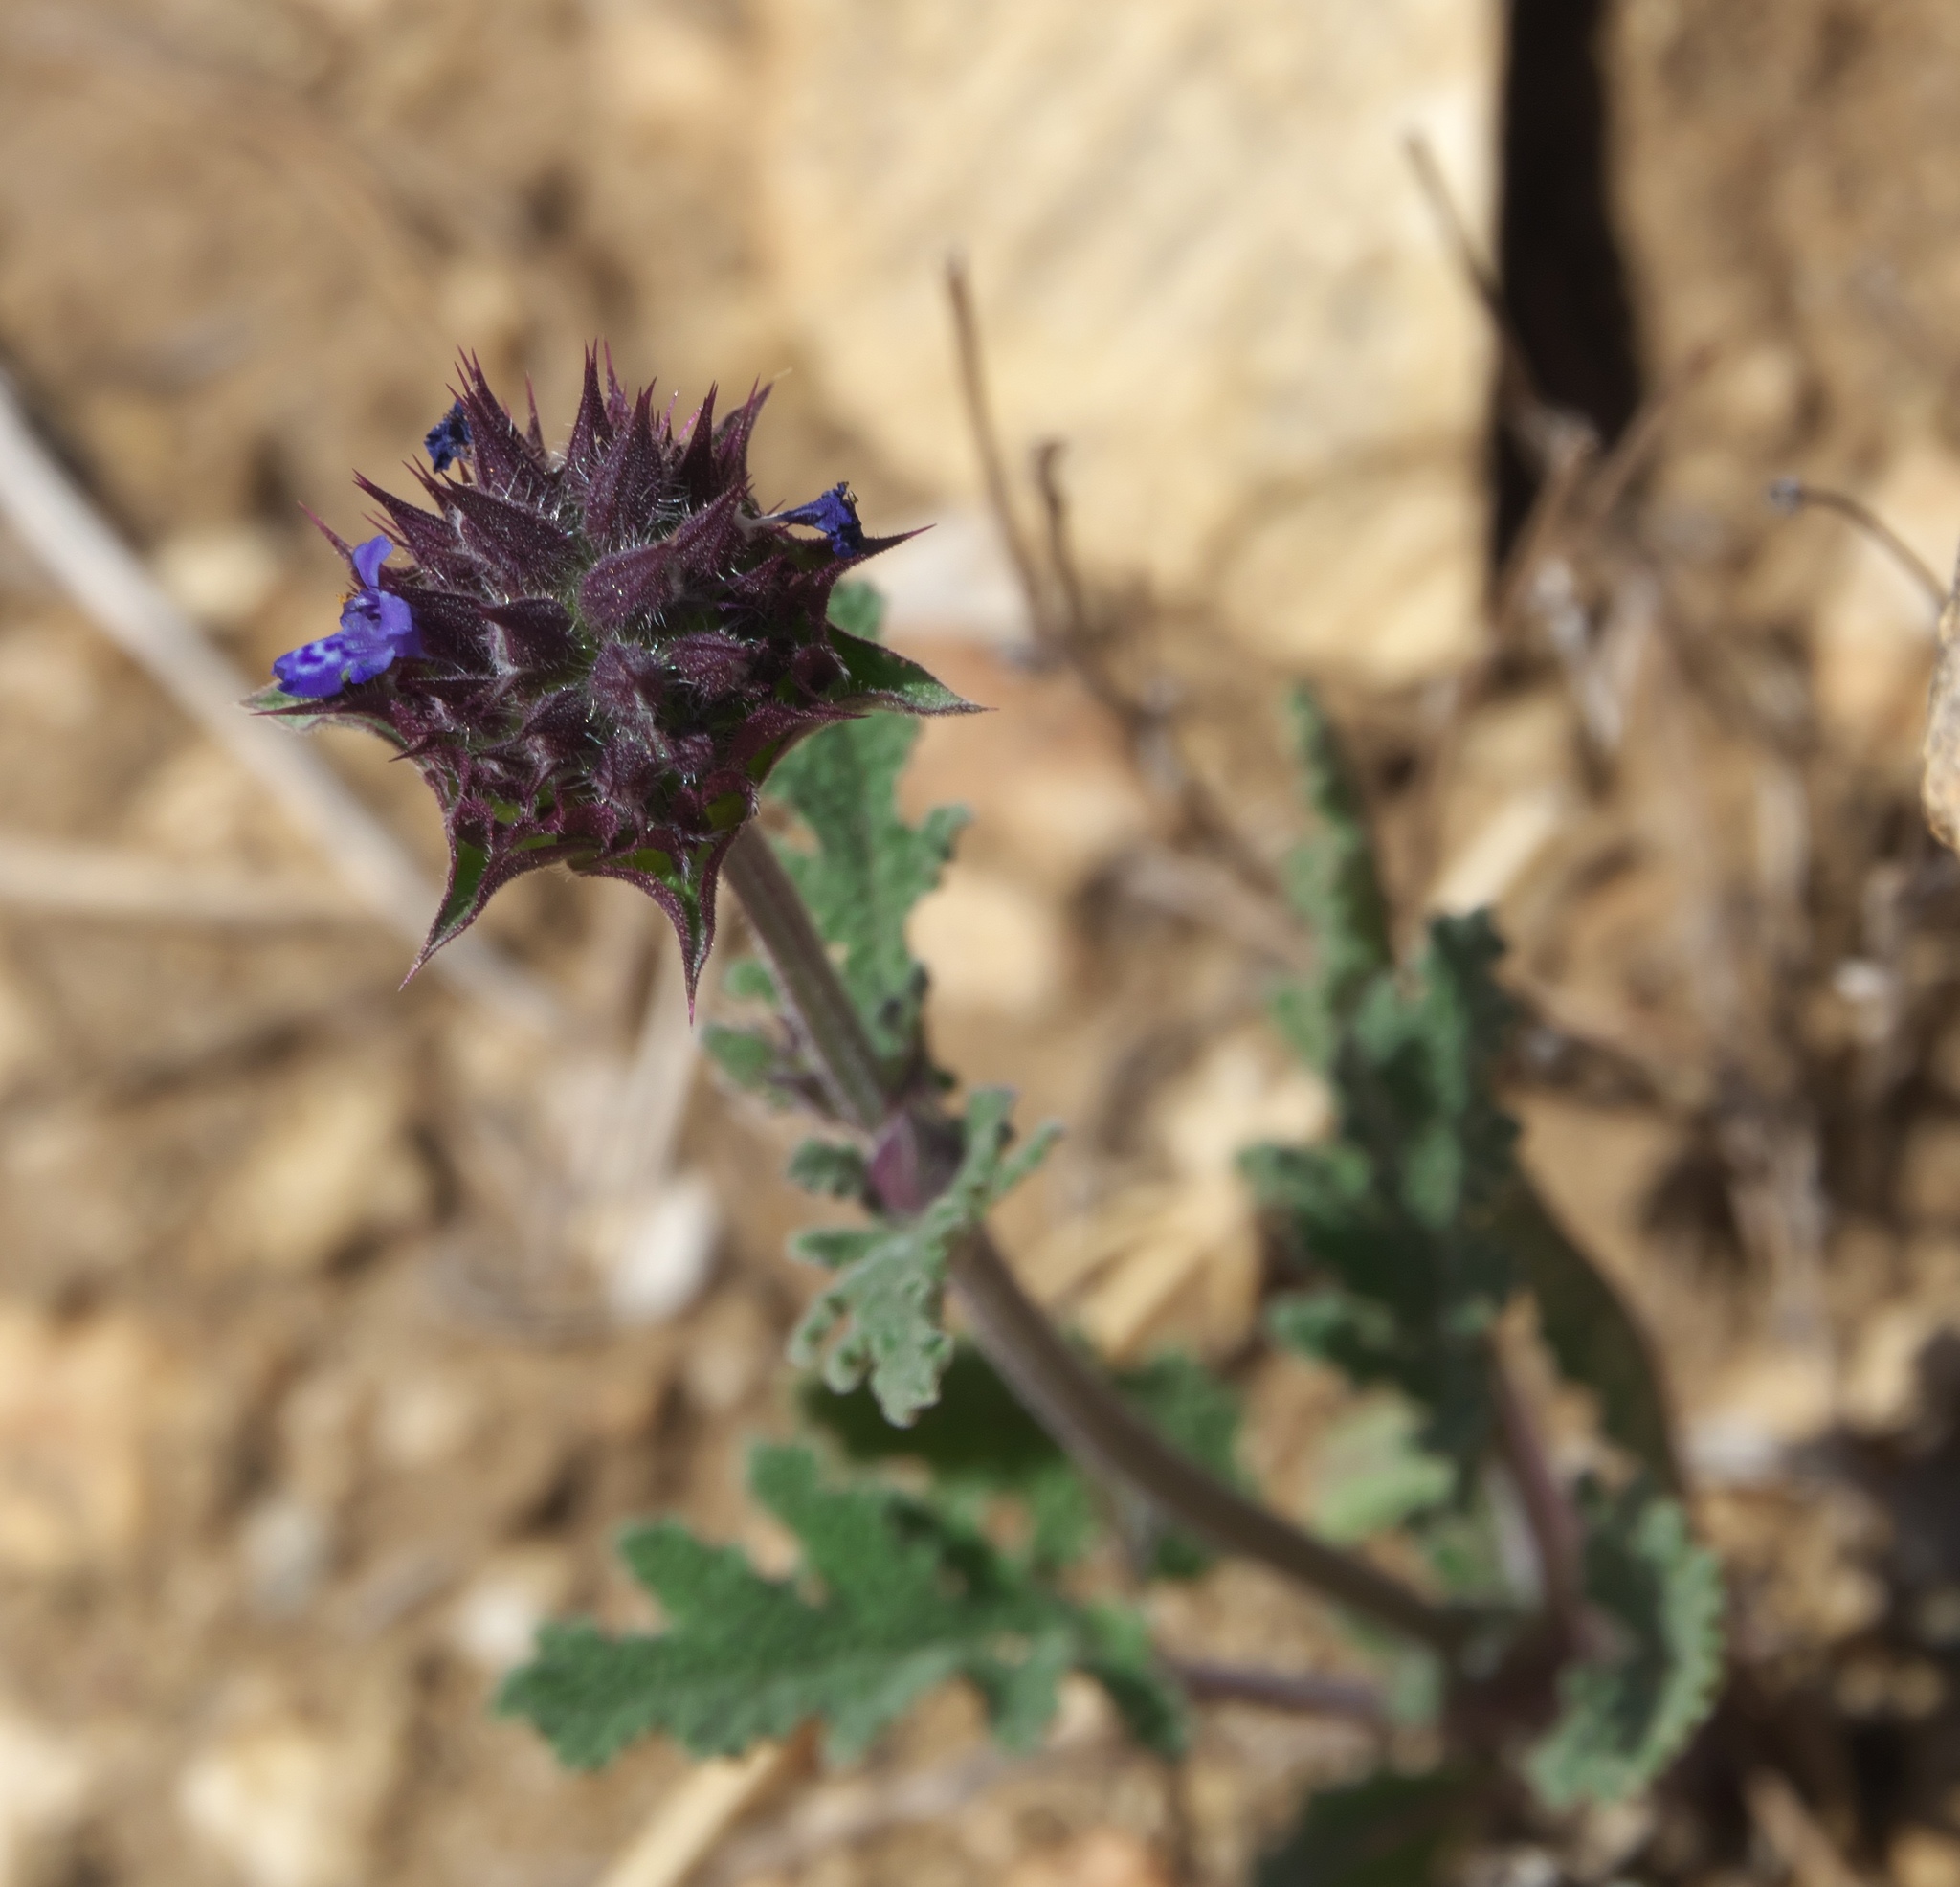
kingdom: Plantae
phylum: Tracheophyta
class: Magnoliopsida
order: Lamiales
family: Lamiaceae
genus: Salvia
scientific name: Salvia columbariae
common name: Chia
